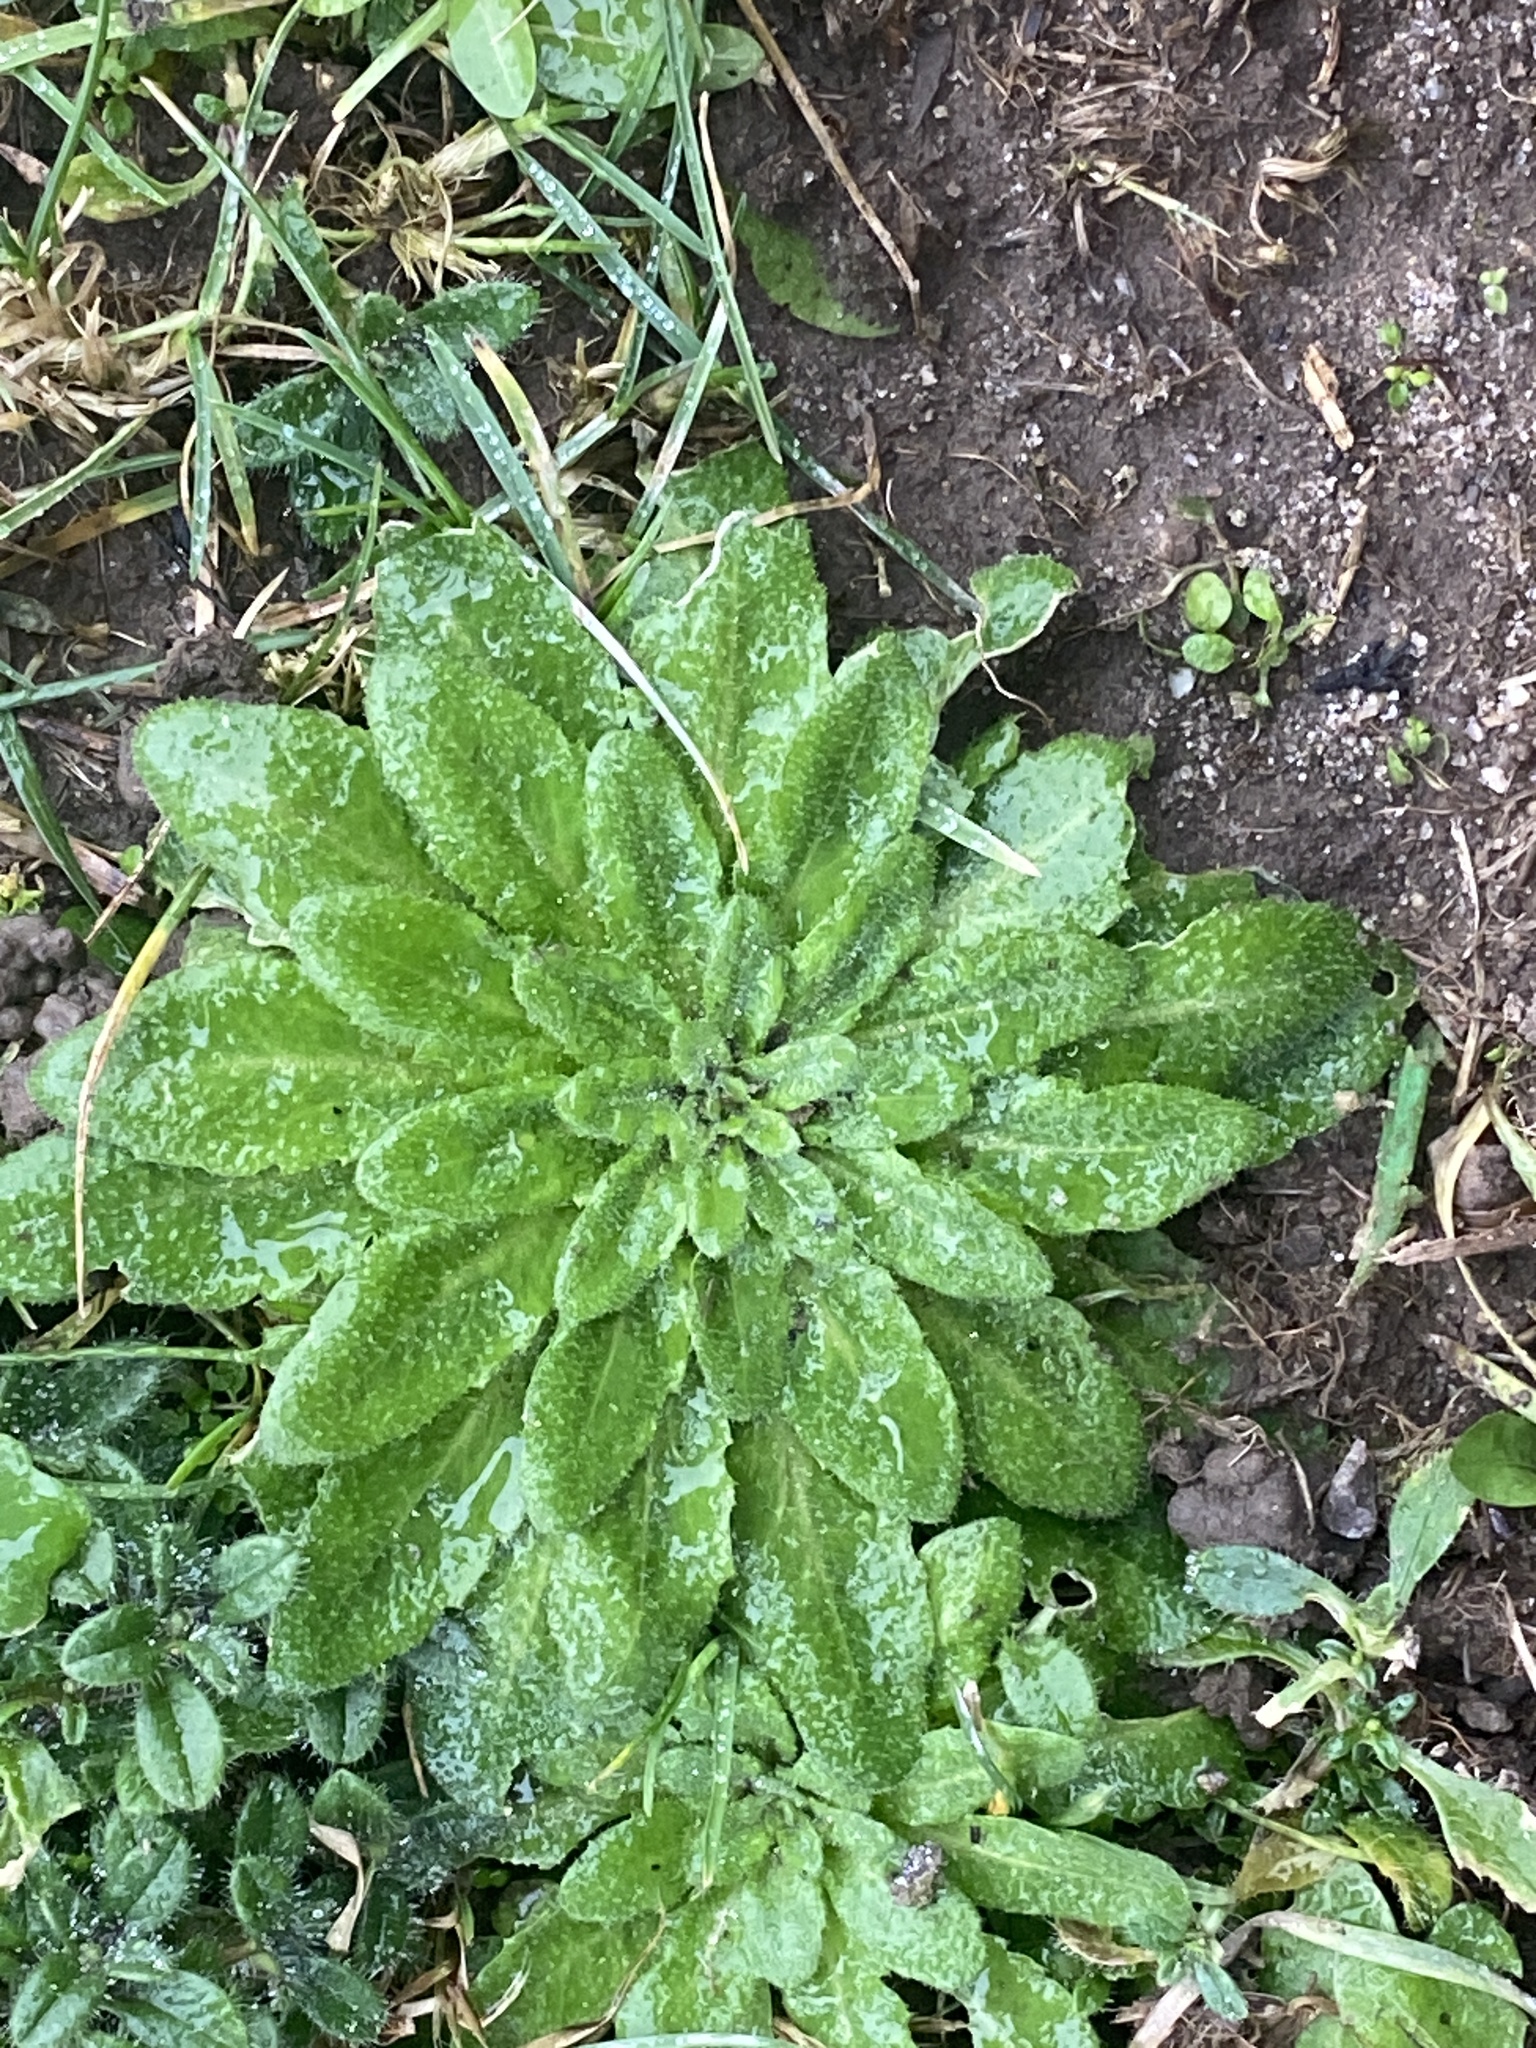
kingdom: Plantae
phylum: Tracheophyta
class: Magnoliopsida
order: Asterales
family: Asteraceae
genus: Erigeron
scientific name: Erigeron canadensis
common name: Canadian fleabane
